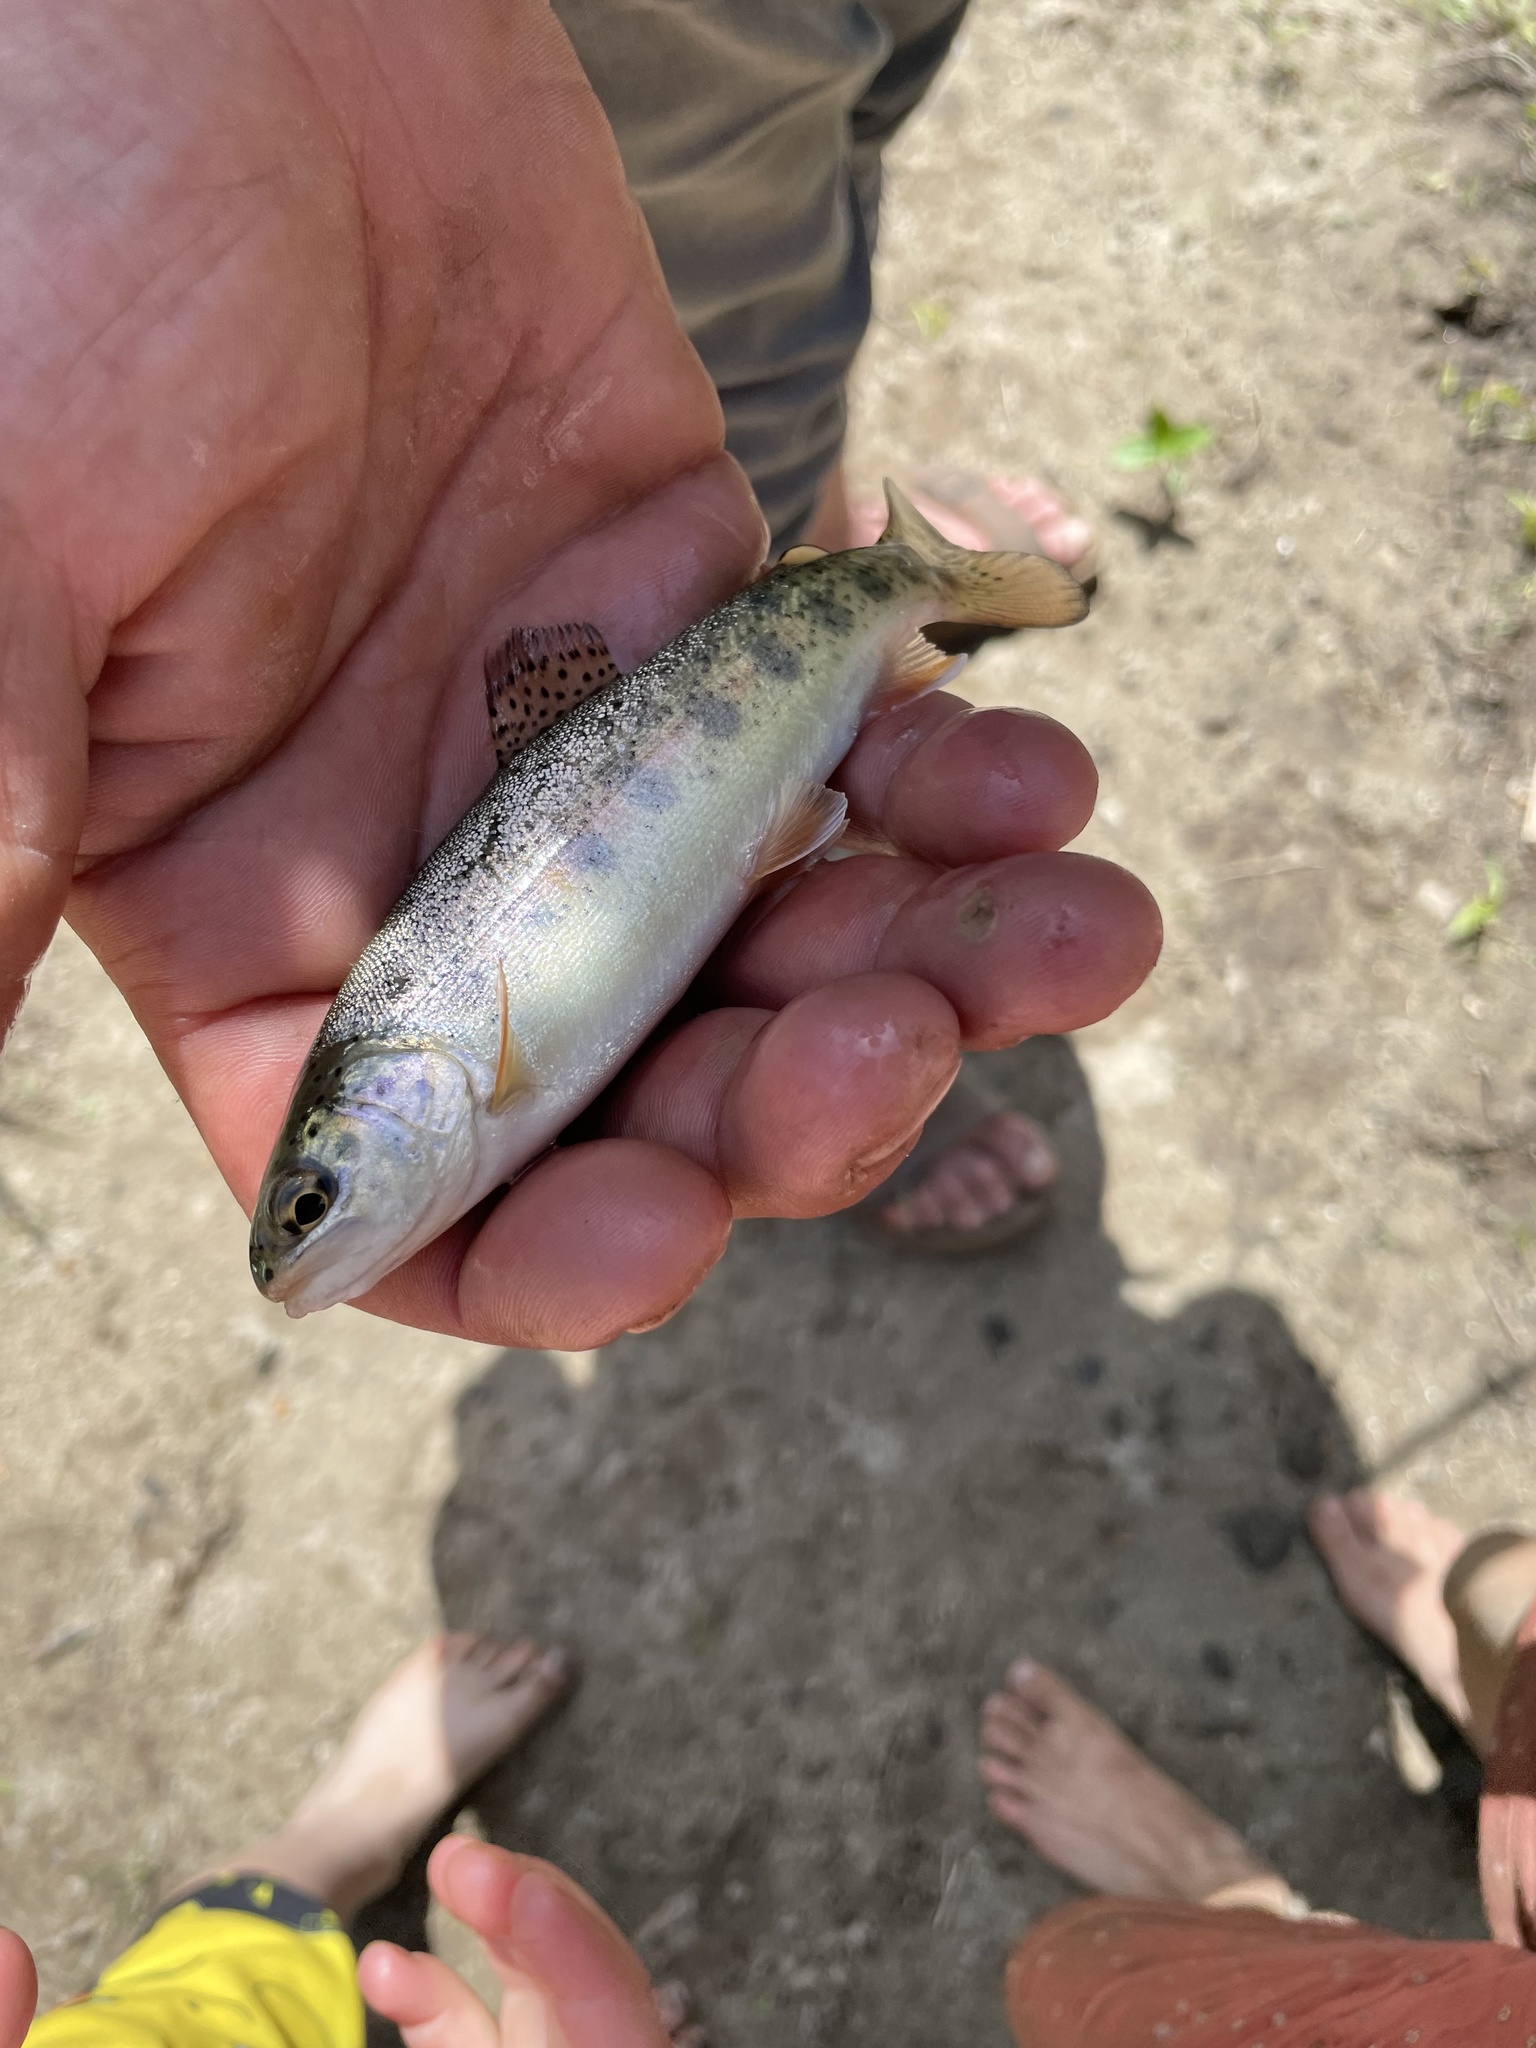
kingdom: Animalia
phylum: Chordata
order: Salmoniformes
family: Salmonidae
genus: Oncorhynchus
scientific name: Oncorhynchus mykiss
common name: Rainbow trout
